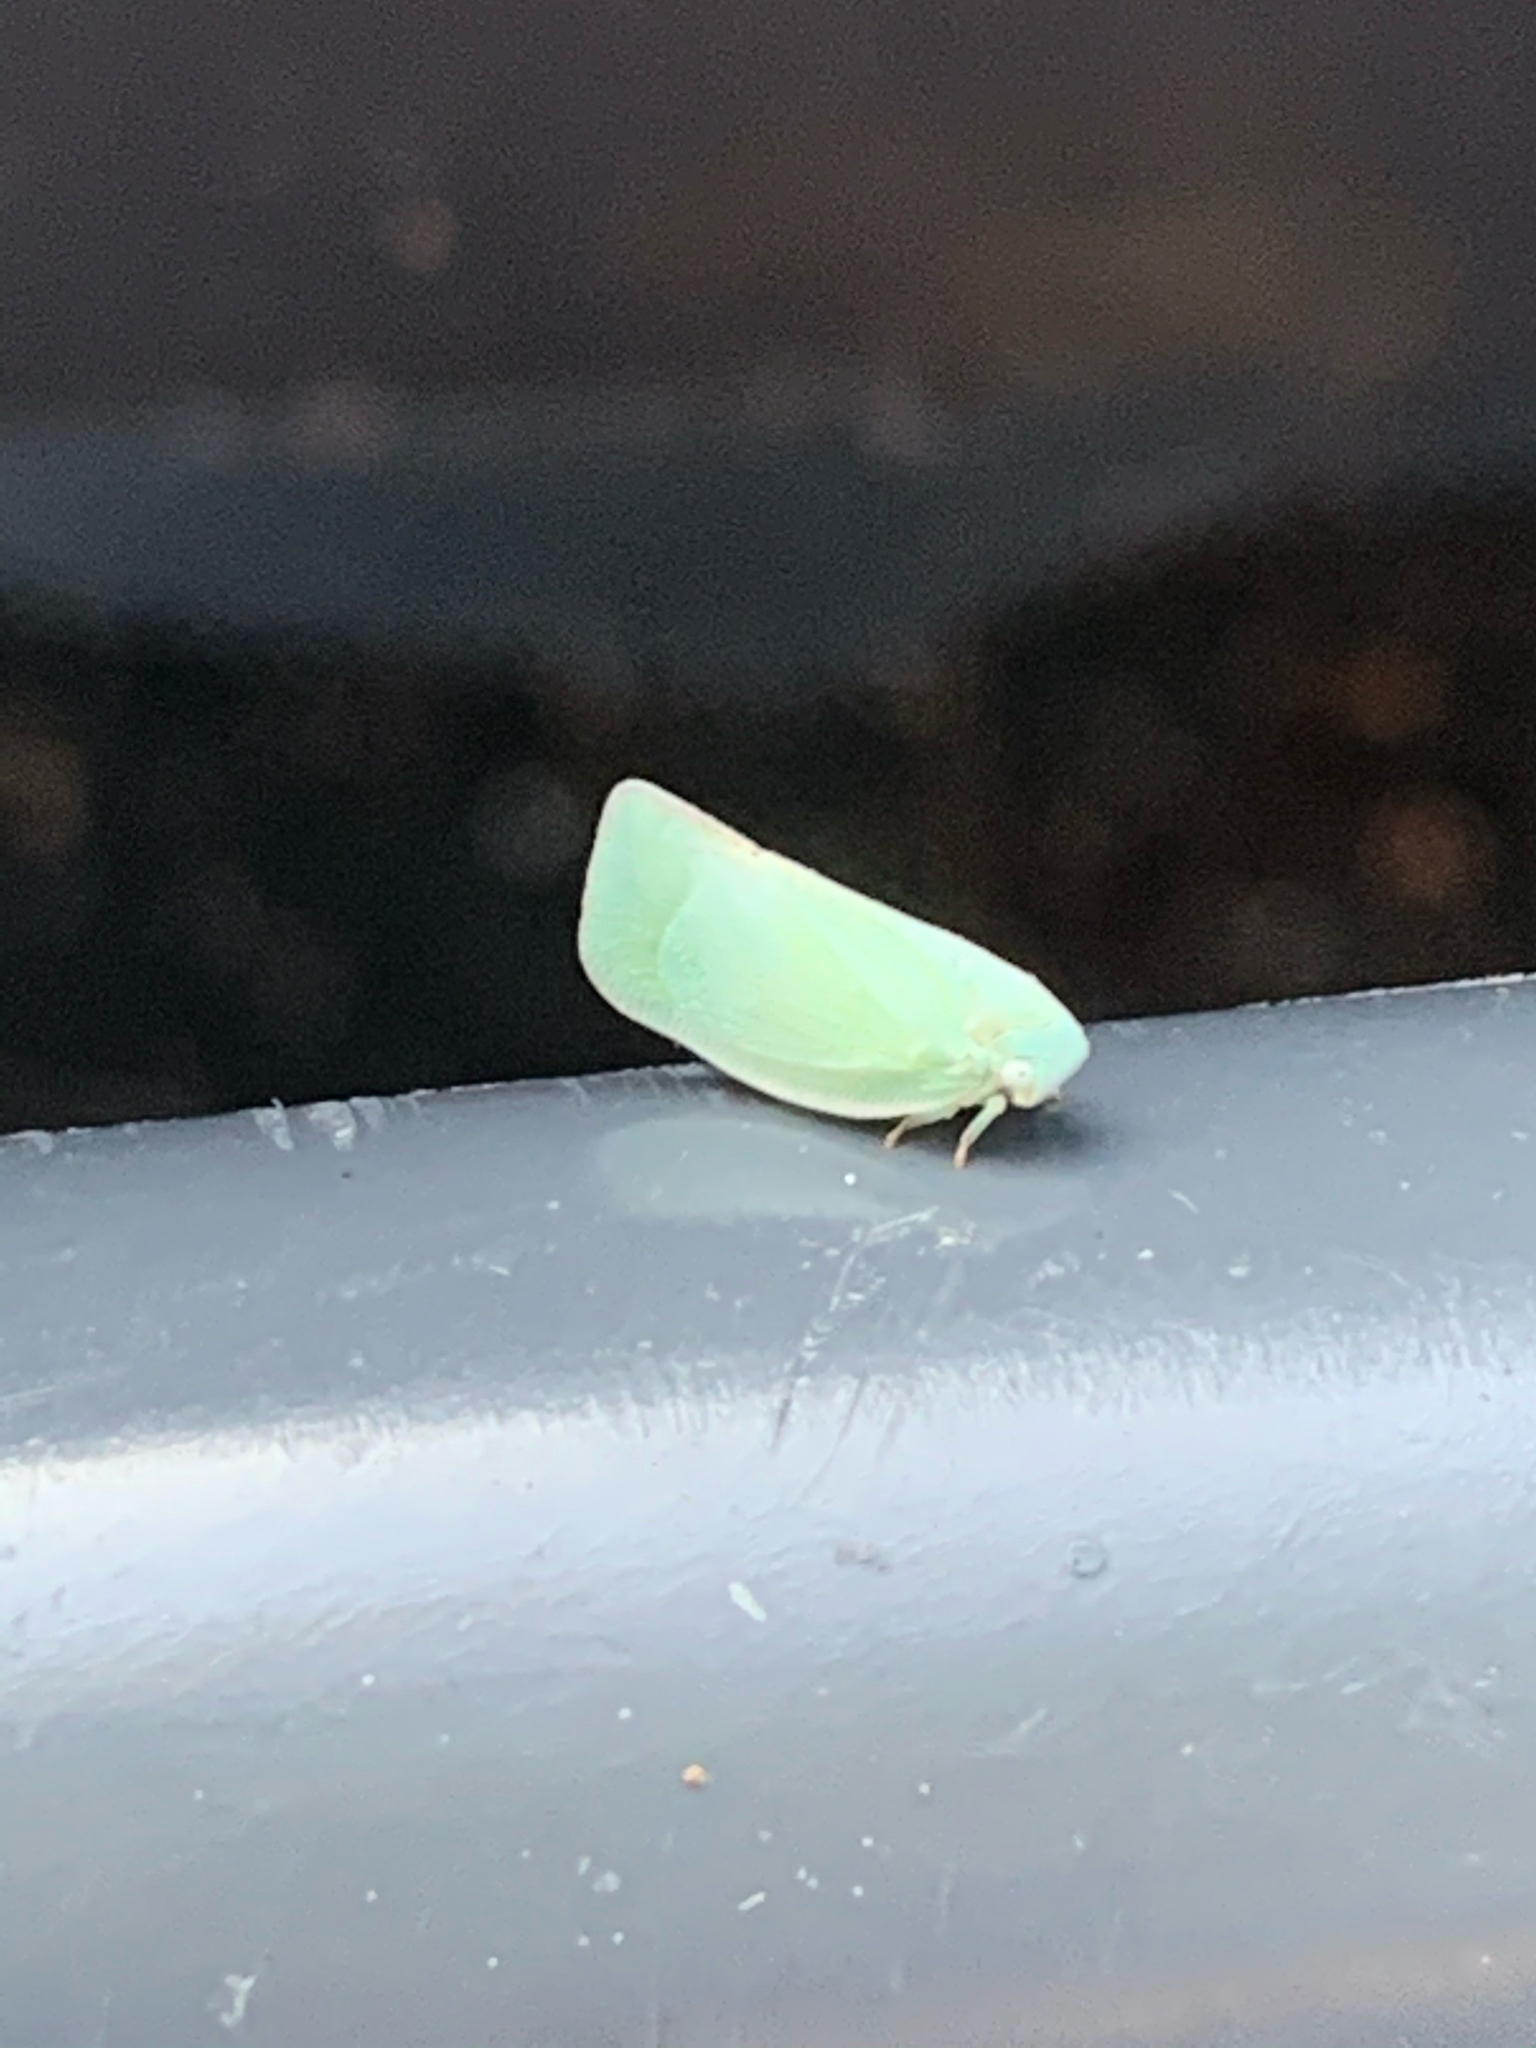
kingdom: Animalia
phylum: Arthropoda
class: Insecta
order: Hemiptera
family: Flatidae
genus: Flatormenis
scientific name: Flatormenis proxima
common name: Northern flatid planthopper
